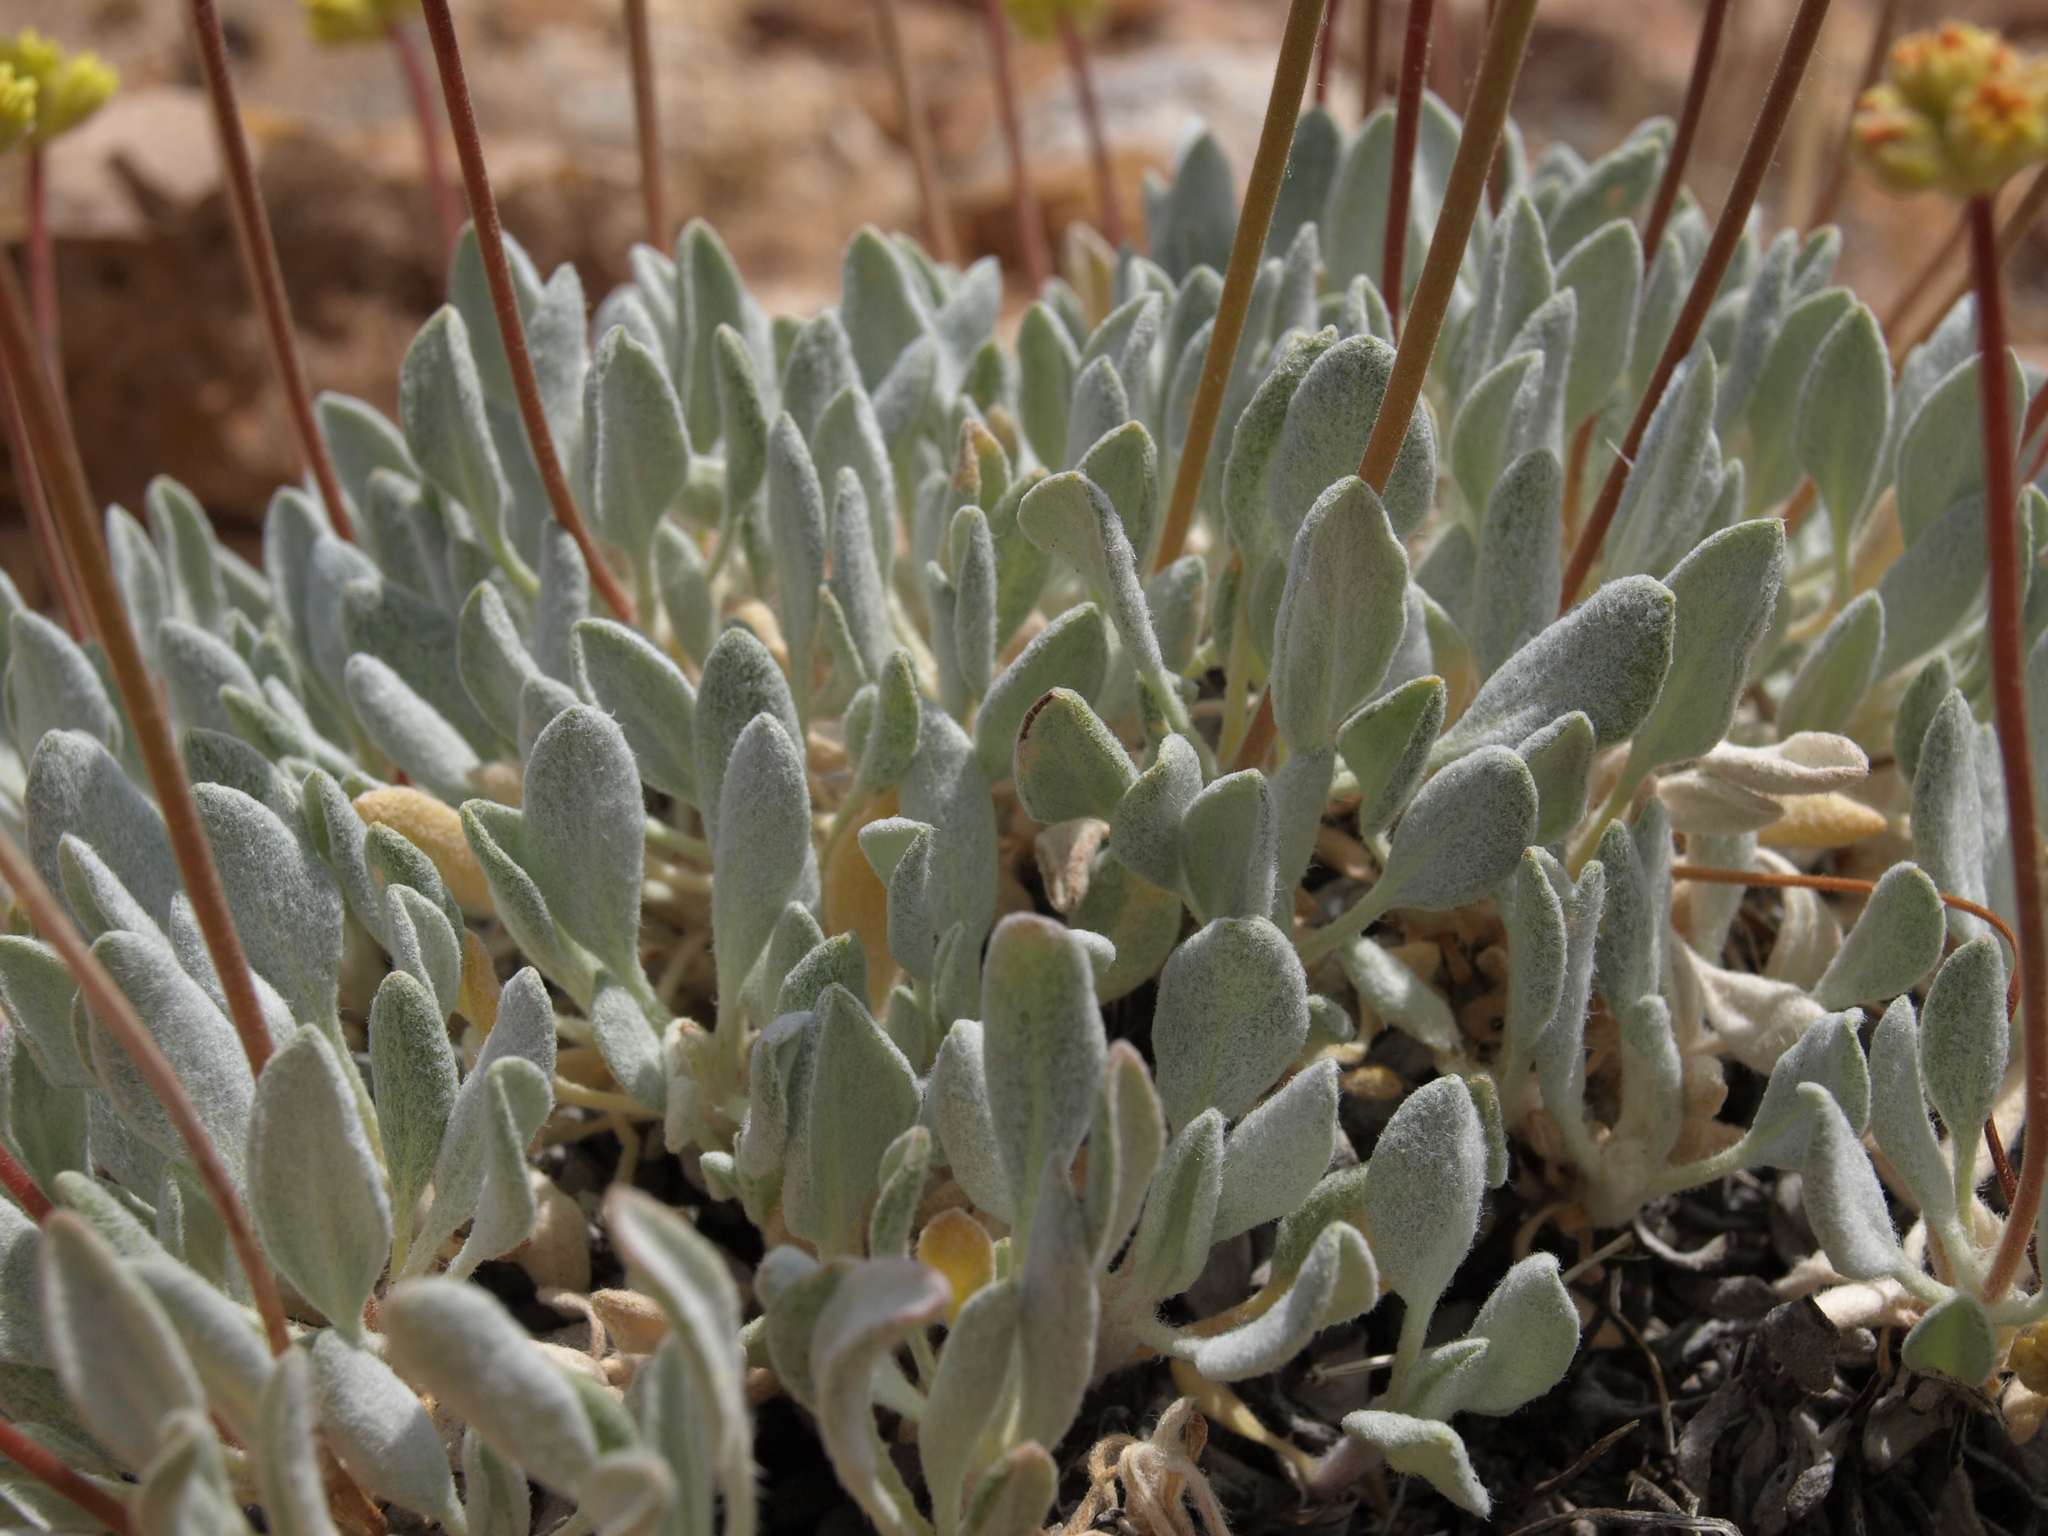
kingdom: Plantae
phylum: Tracheophyta
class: Magnoliopsida
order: Caryophyllales
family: Polygonaceae
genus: Eriogonum
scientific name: Eriogonum ochrocephalum
